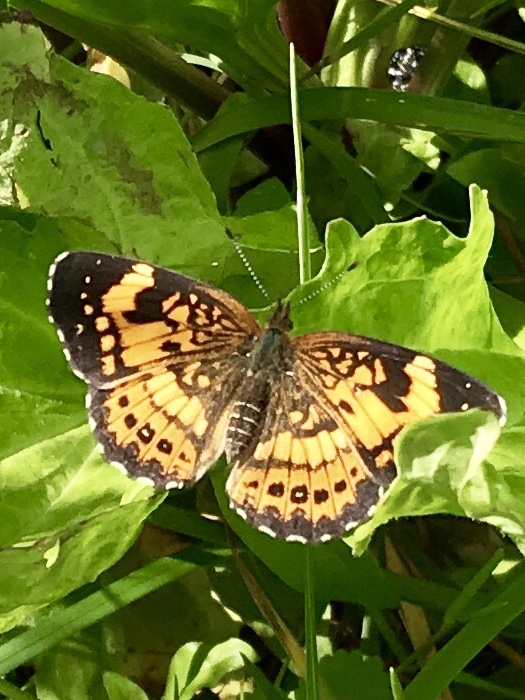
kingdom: Animalia
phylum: Arthropoda
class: Insecta
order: Lepidoptera
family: Nymphalidae
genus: Chlosyne
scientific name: Chlosyne nycteis
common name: Silvery checkerspot
